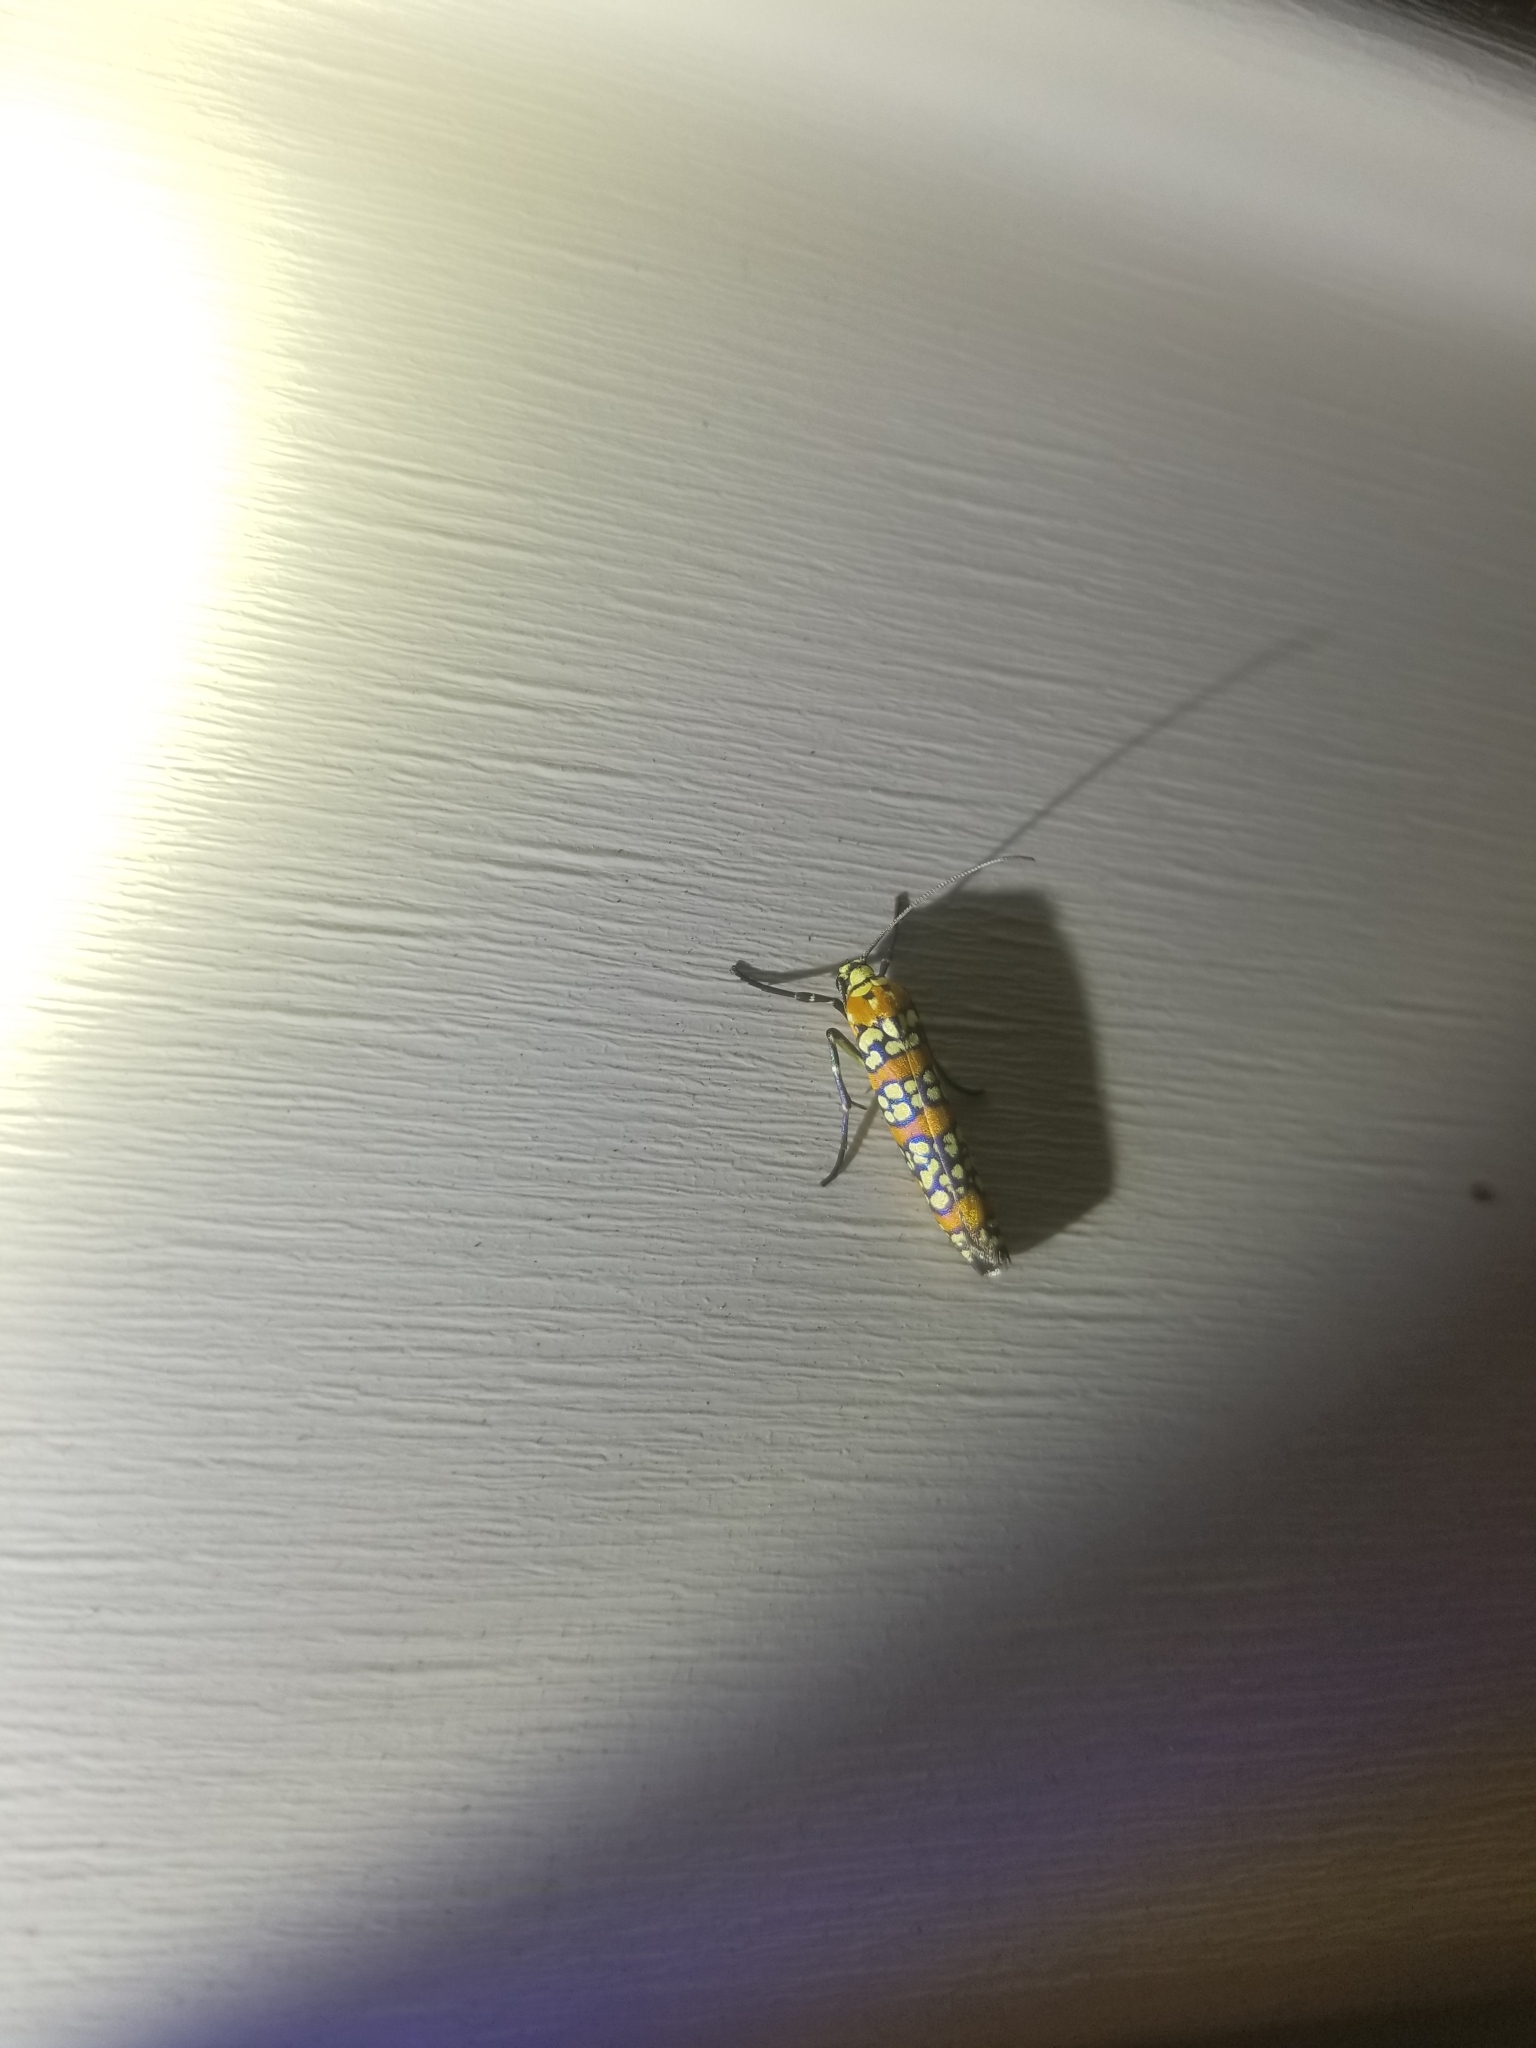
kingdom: Animalia
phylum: Arthropoda
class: Insecta
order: Lepidoptera
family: Attevidae
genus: Atteva
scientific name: Atteva punctella
